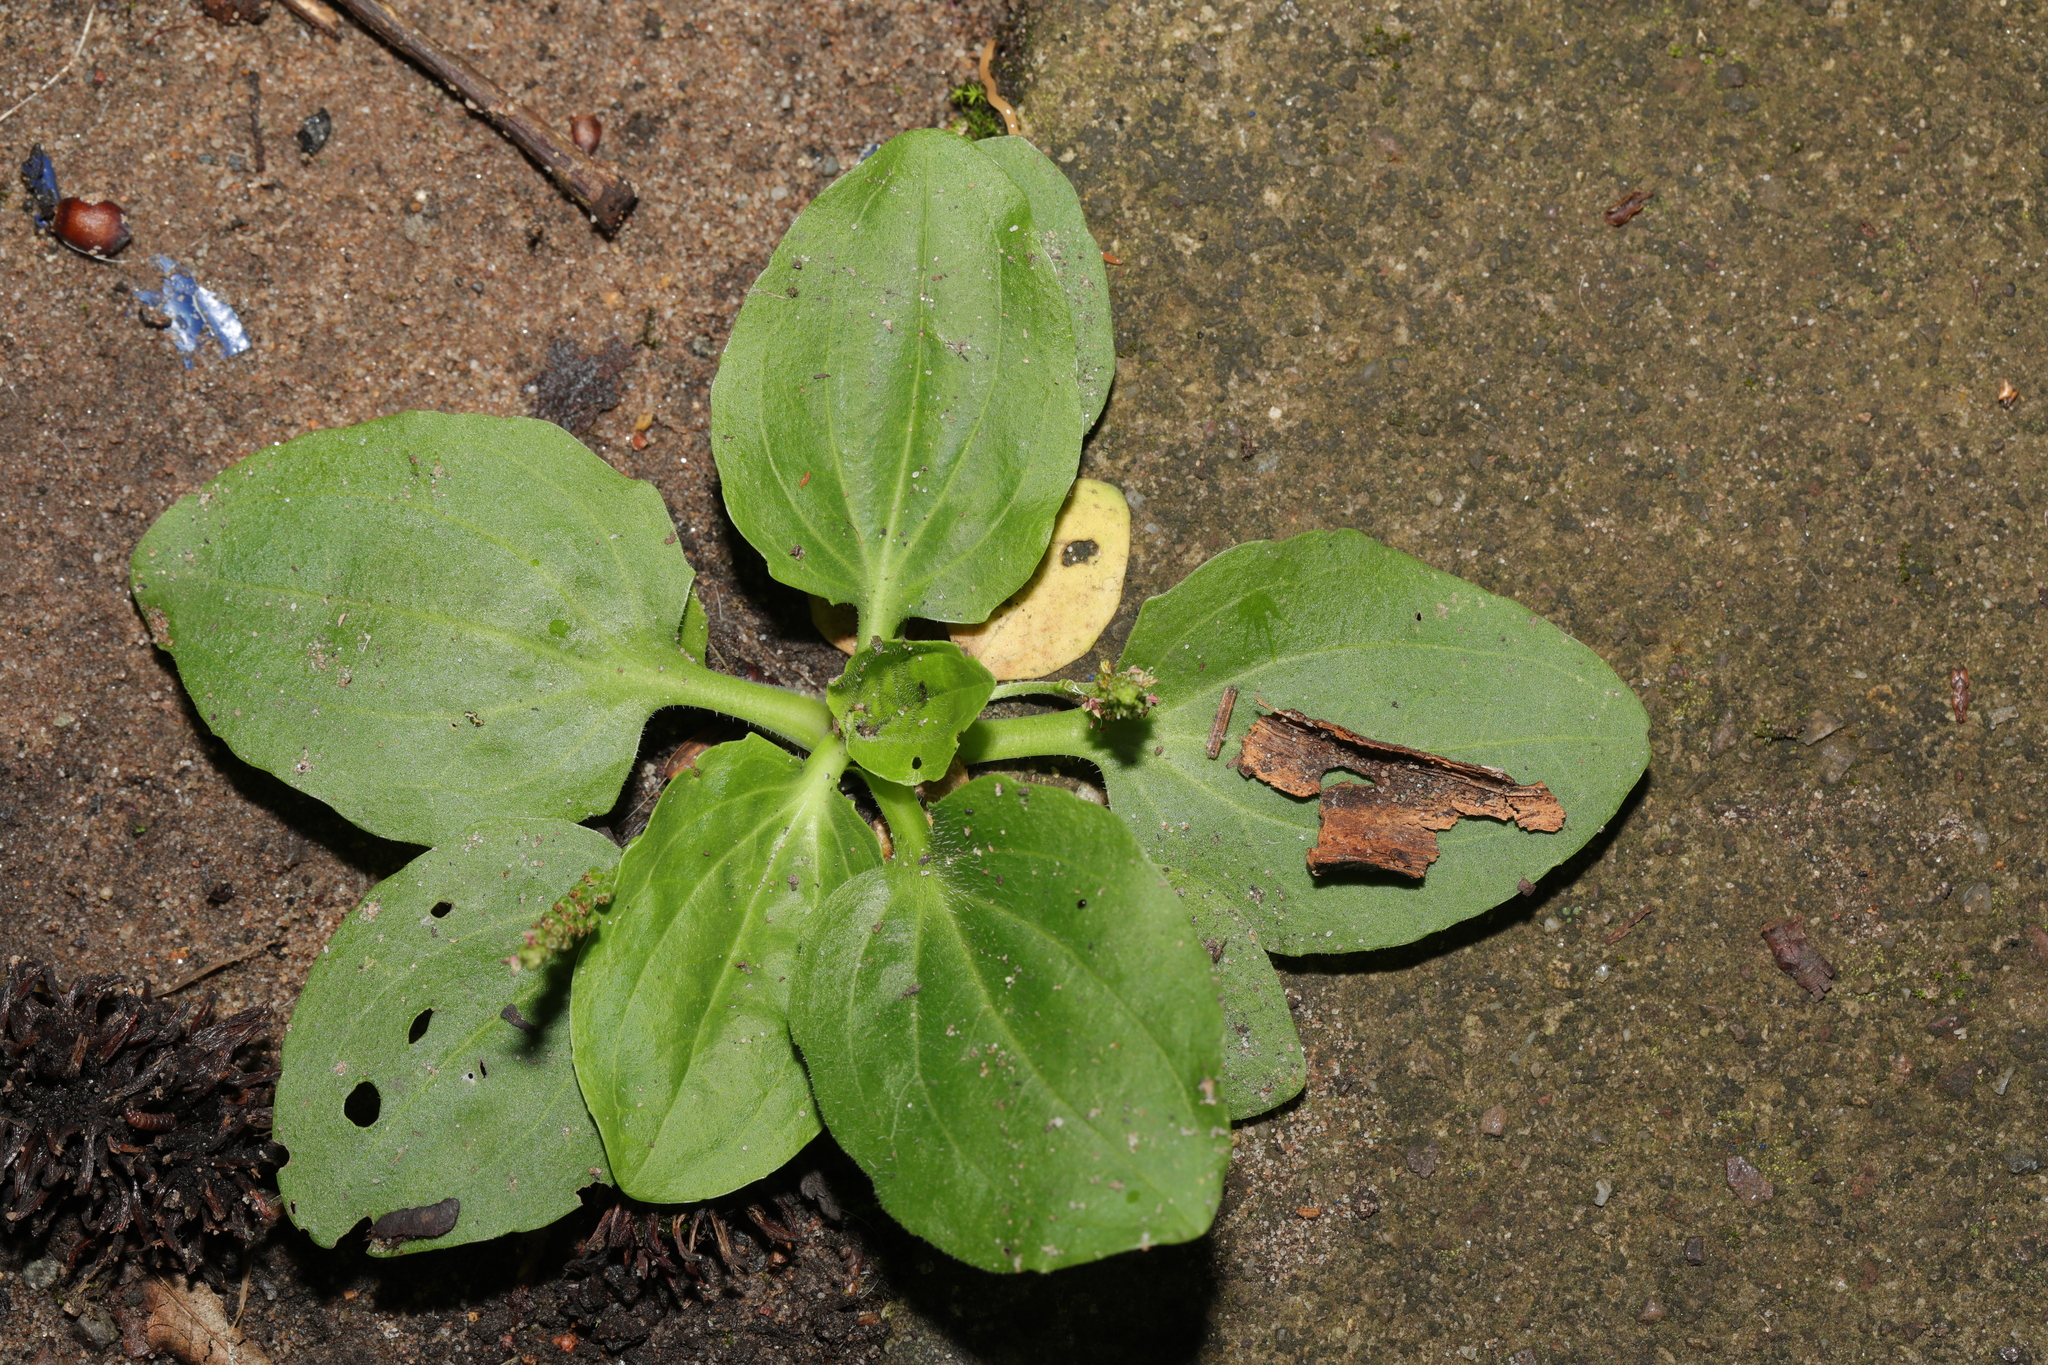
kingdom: Plantae
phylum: Tracheophyta
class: Magnoliopsida
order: Lamiales
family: Plantaginaceae
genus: Plantago
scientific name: Plantago major
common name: Common plantain
